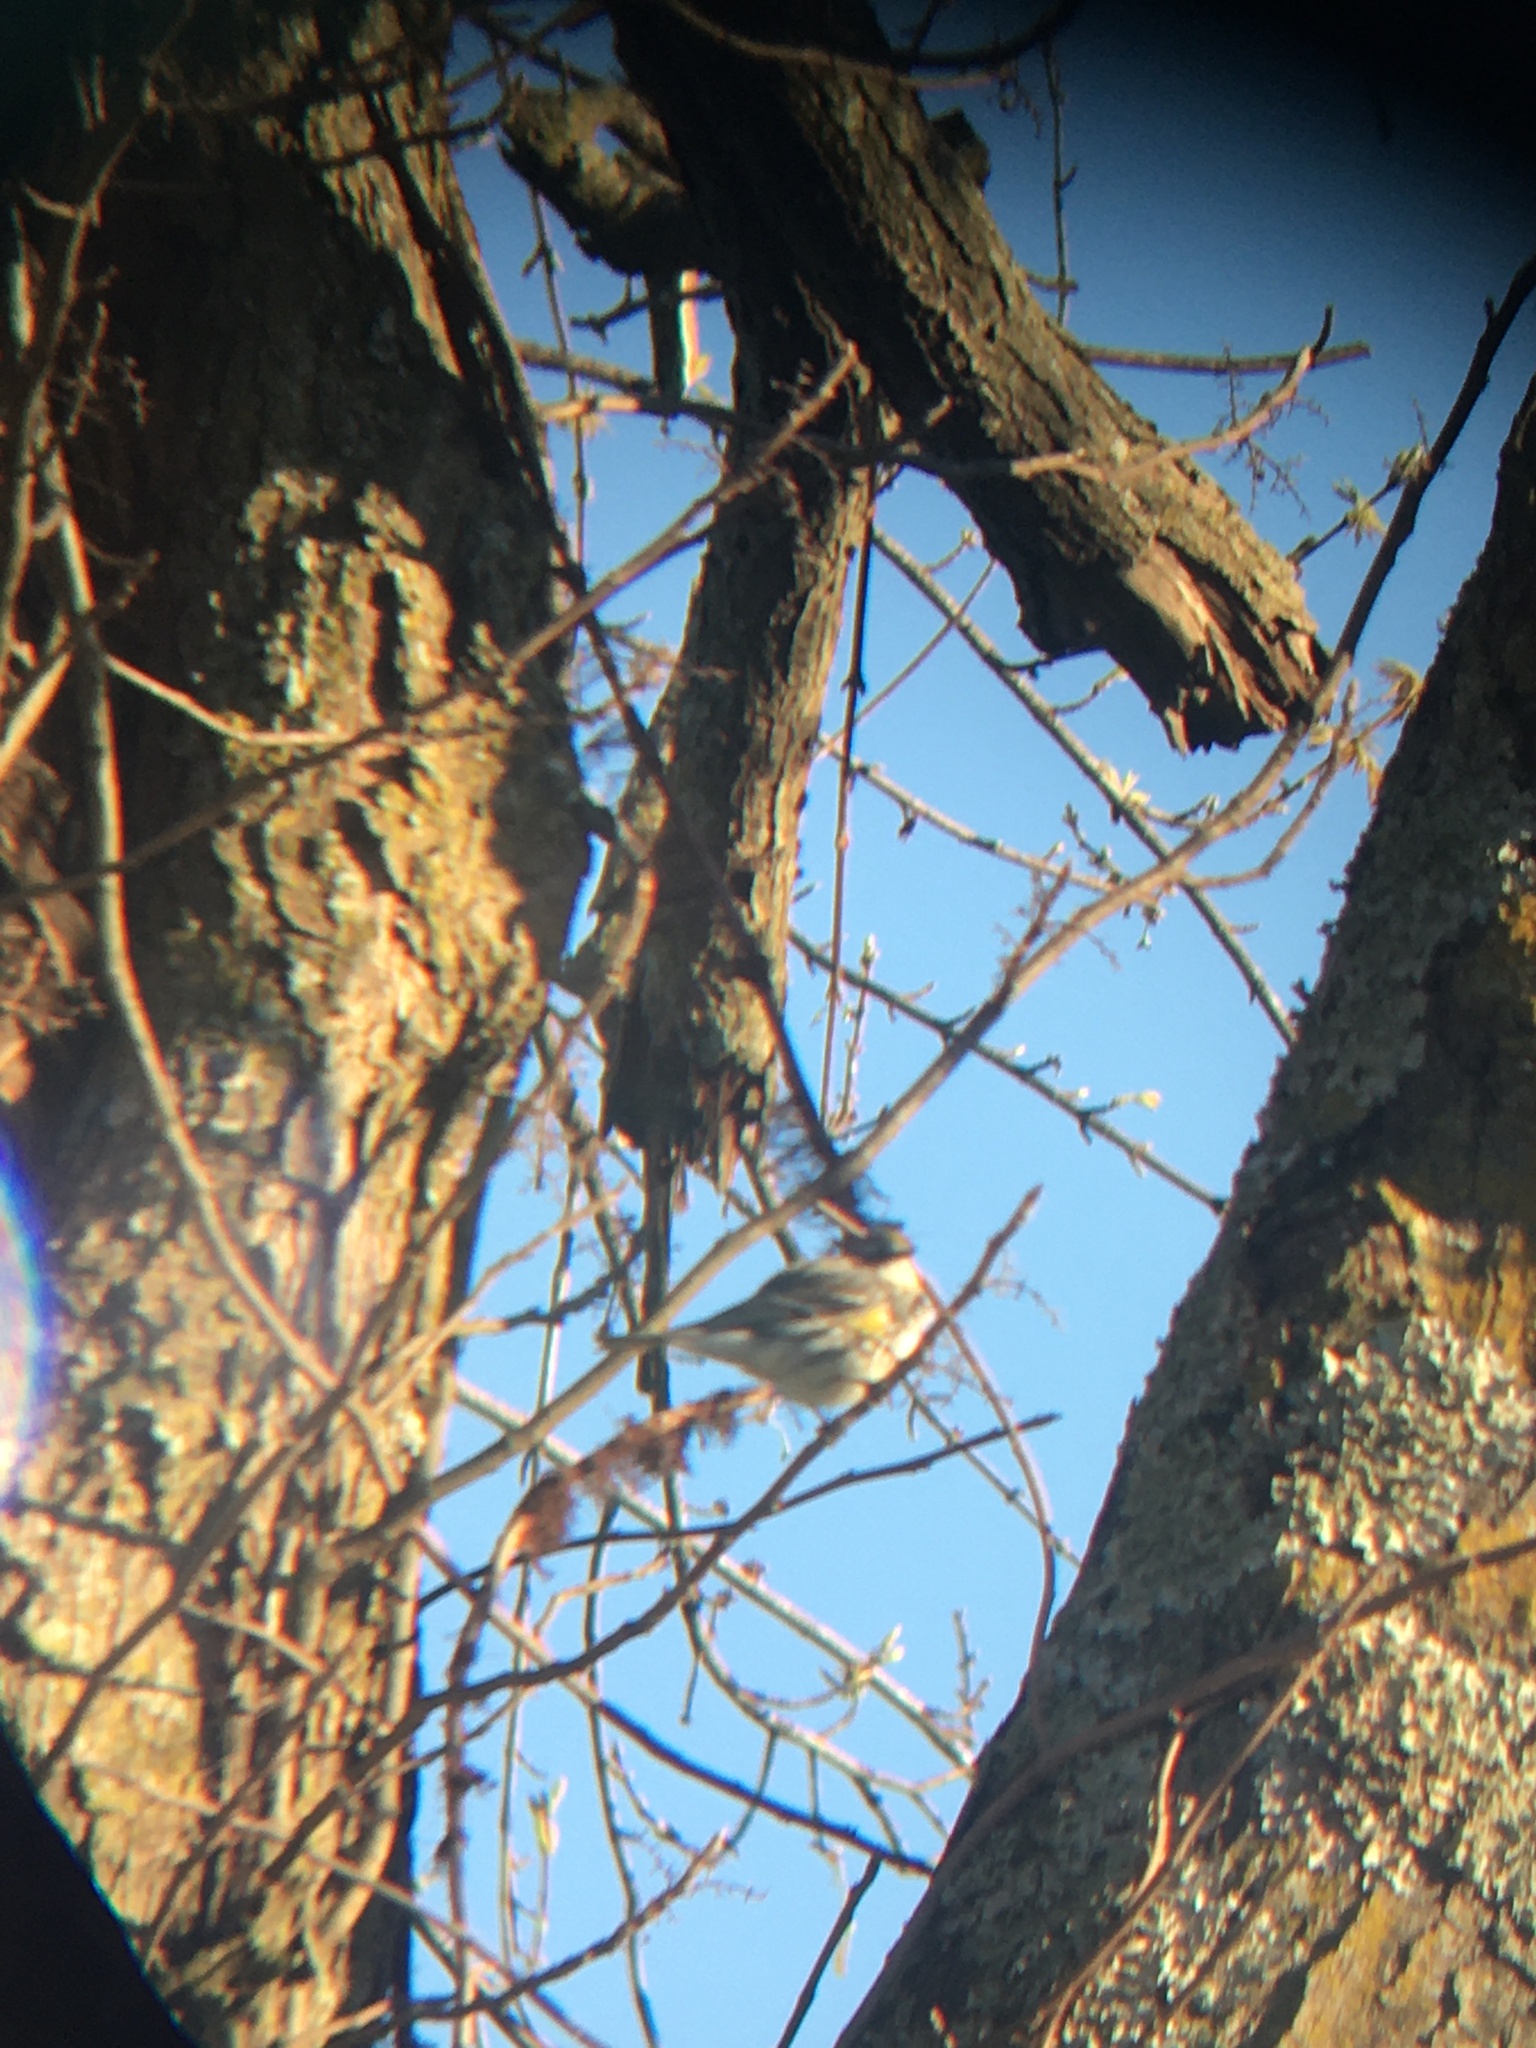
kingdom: Animalia
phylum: Chordata
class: Aves
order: Passeriformes
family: Parulidae
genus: Setophaga
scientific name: Setophaga coronata
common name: Myrtle warbler
